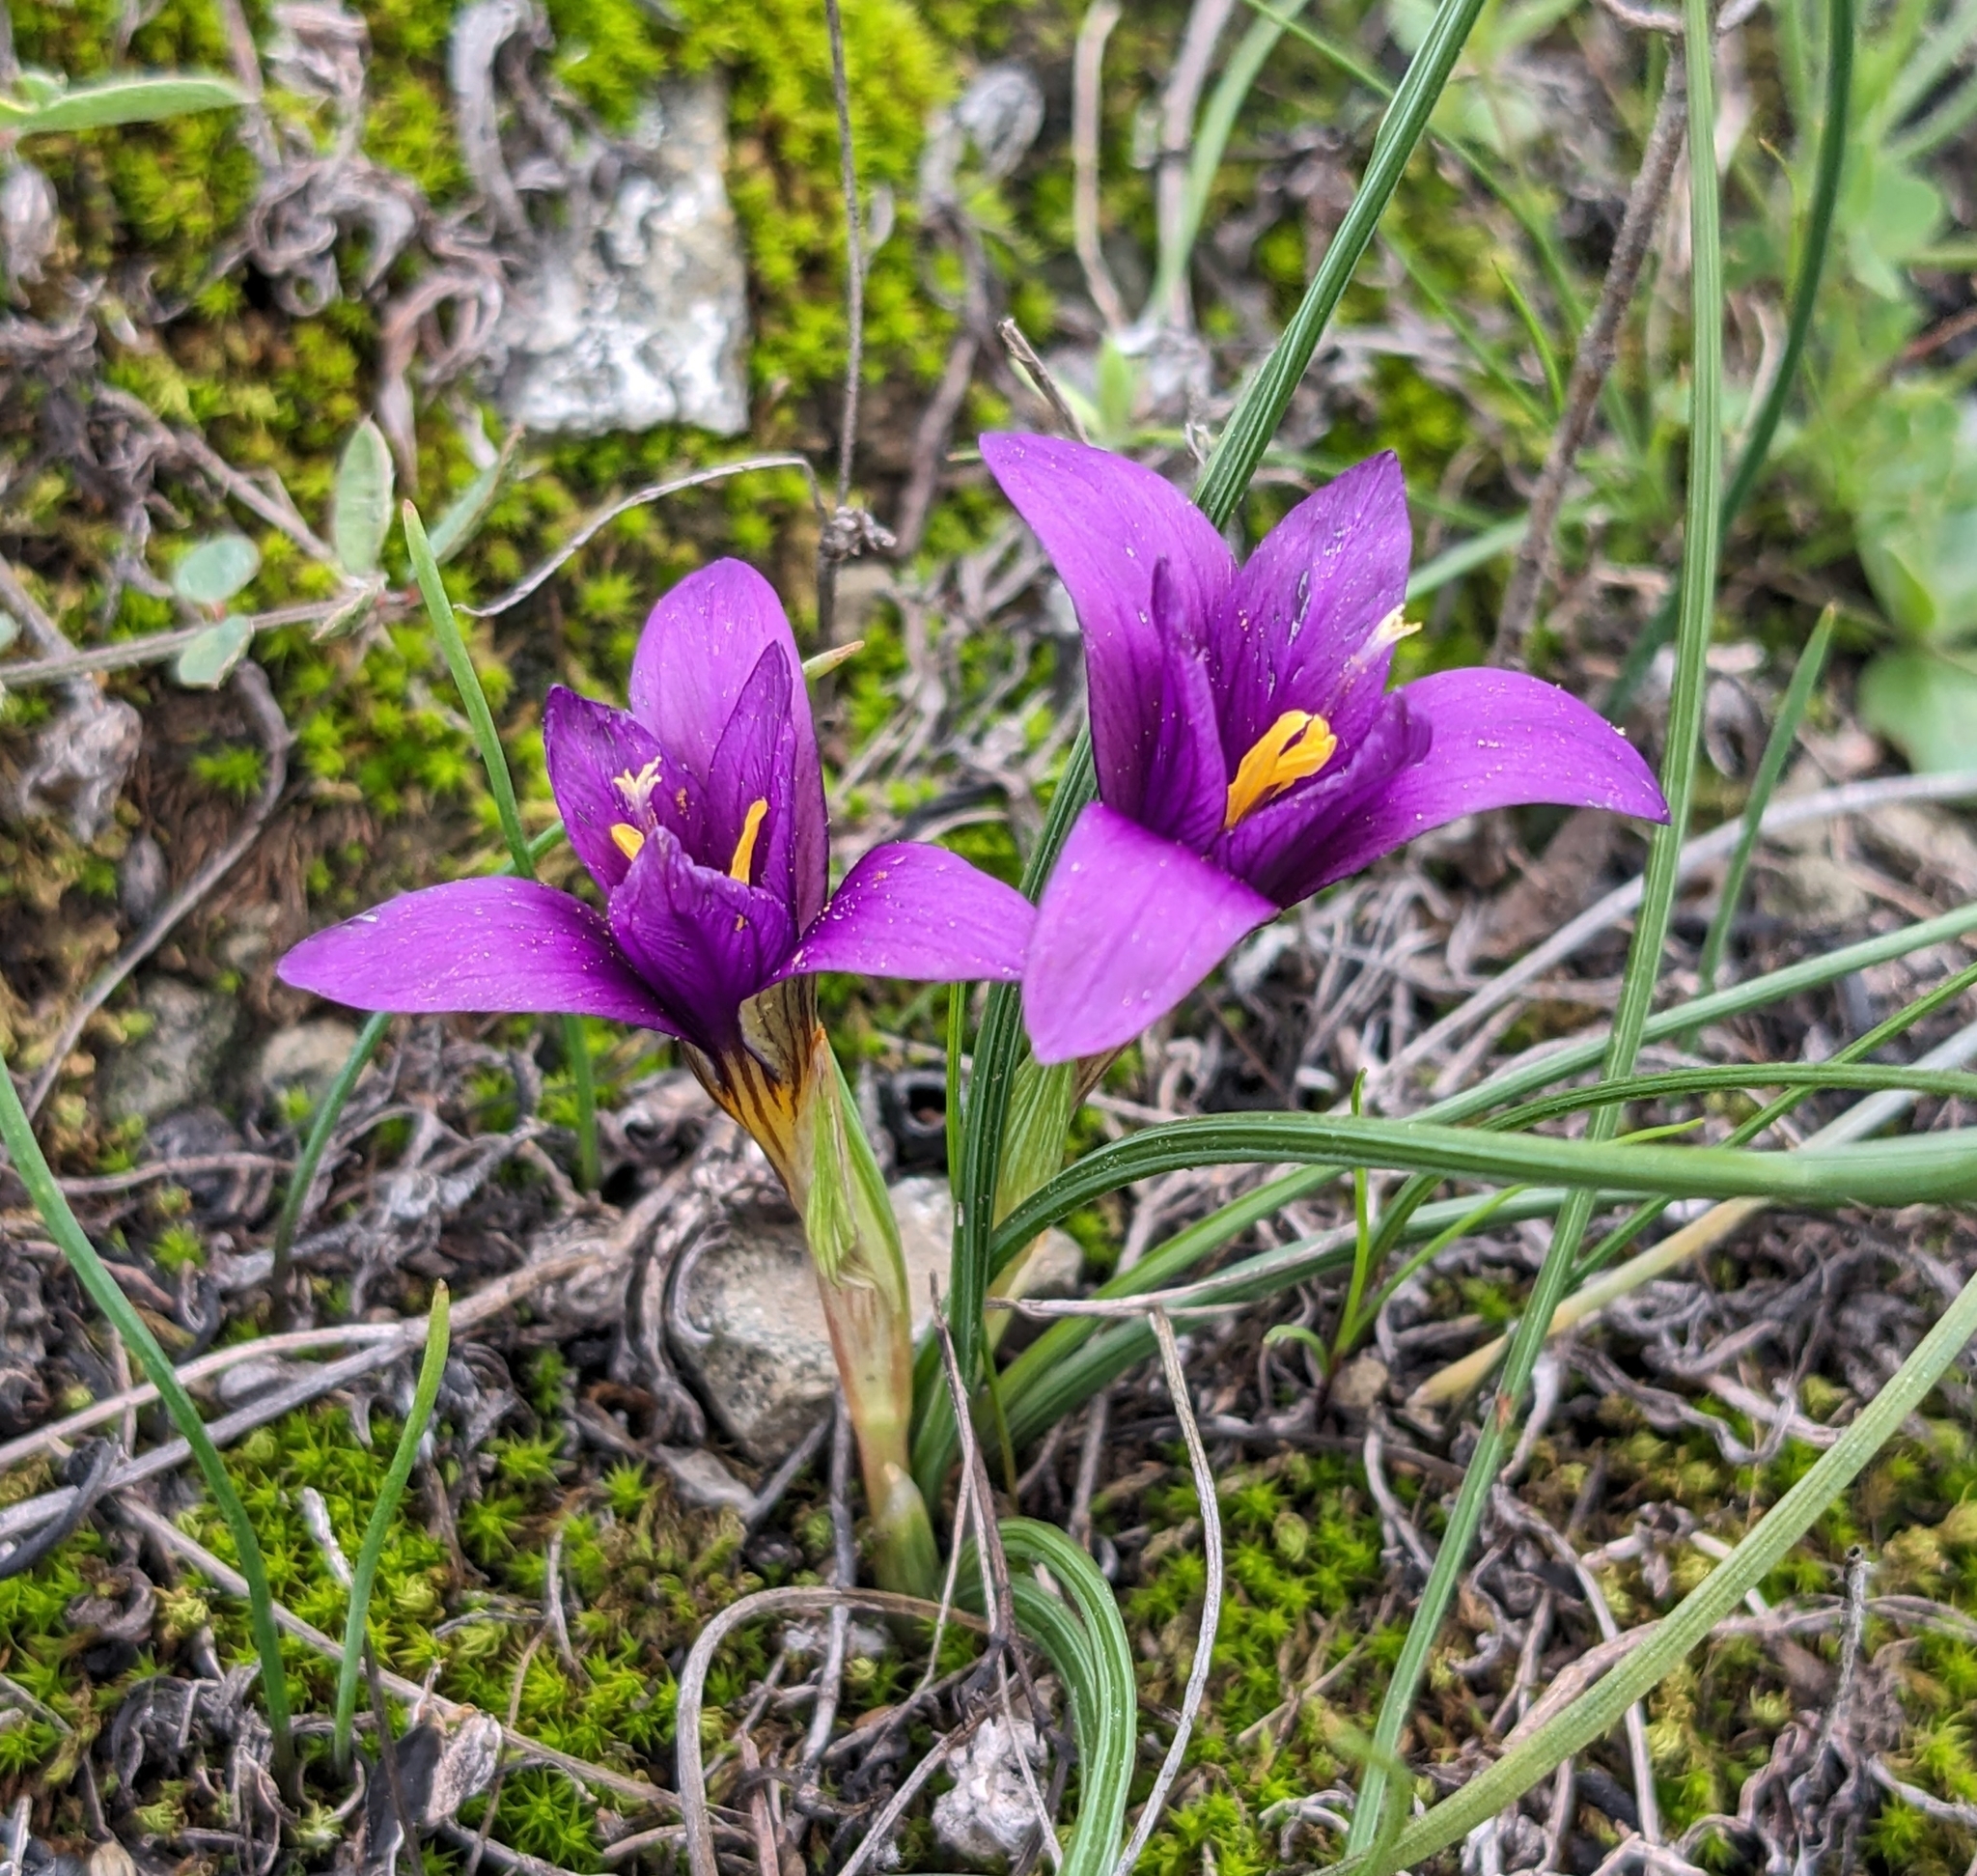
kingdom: Plantae
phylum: Tracheophyta
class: Liliopsida
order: Asparagales
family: Iridaceae
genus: Romulea
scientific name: Romulea tempskyana
